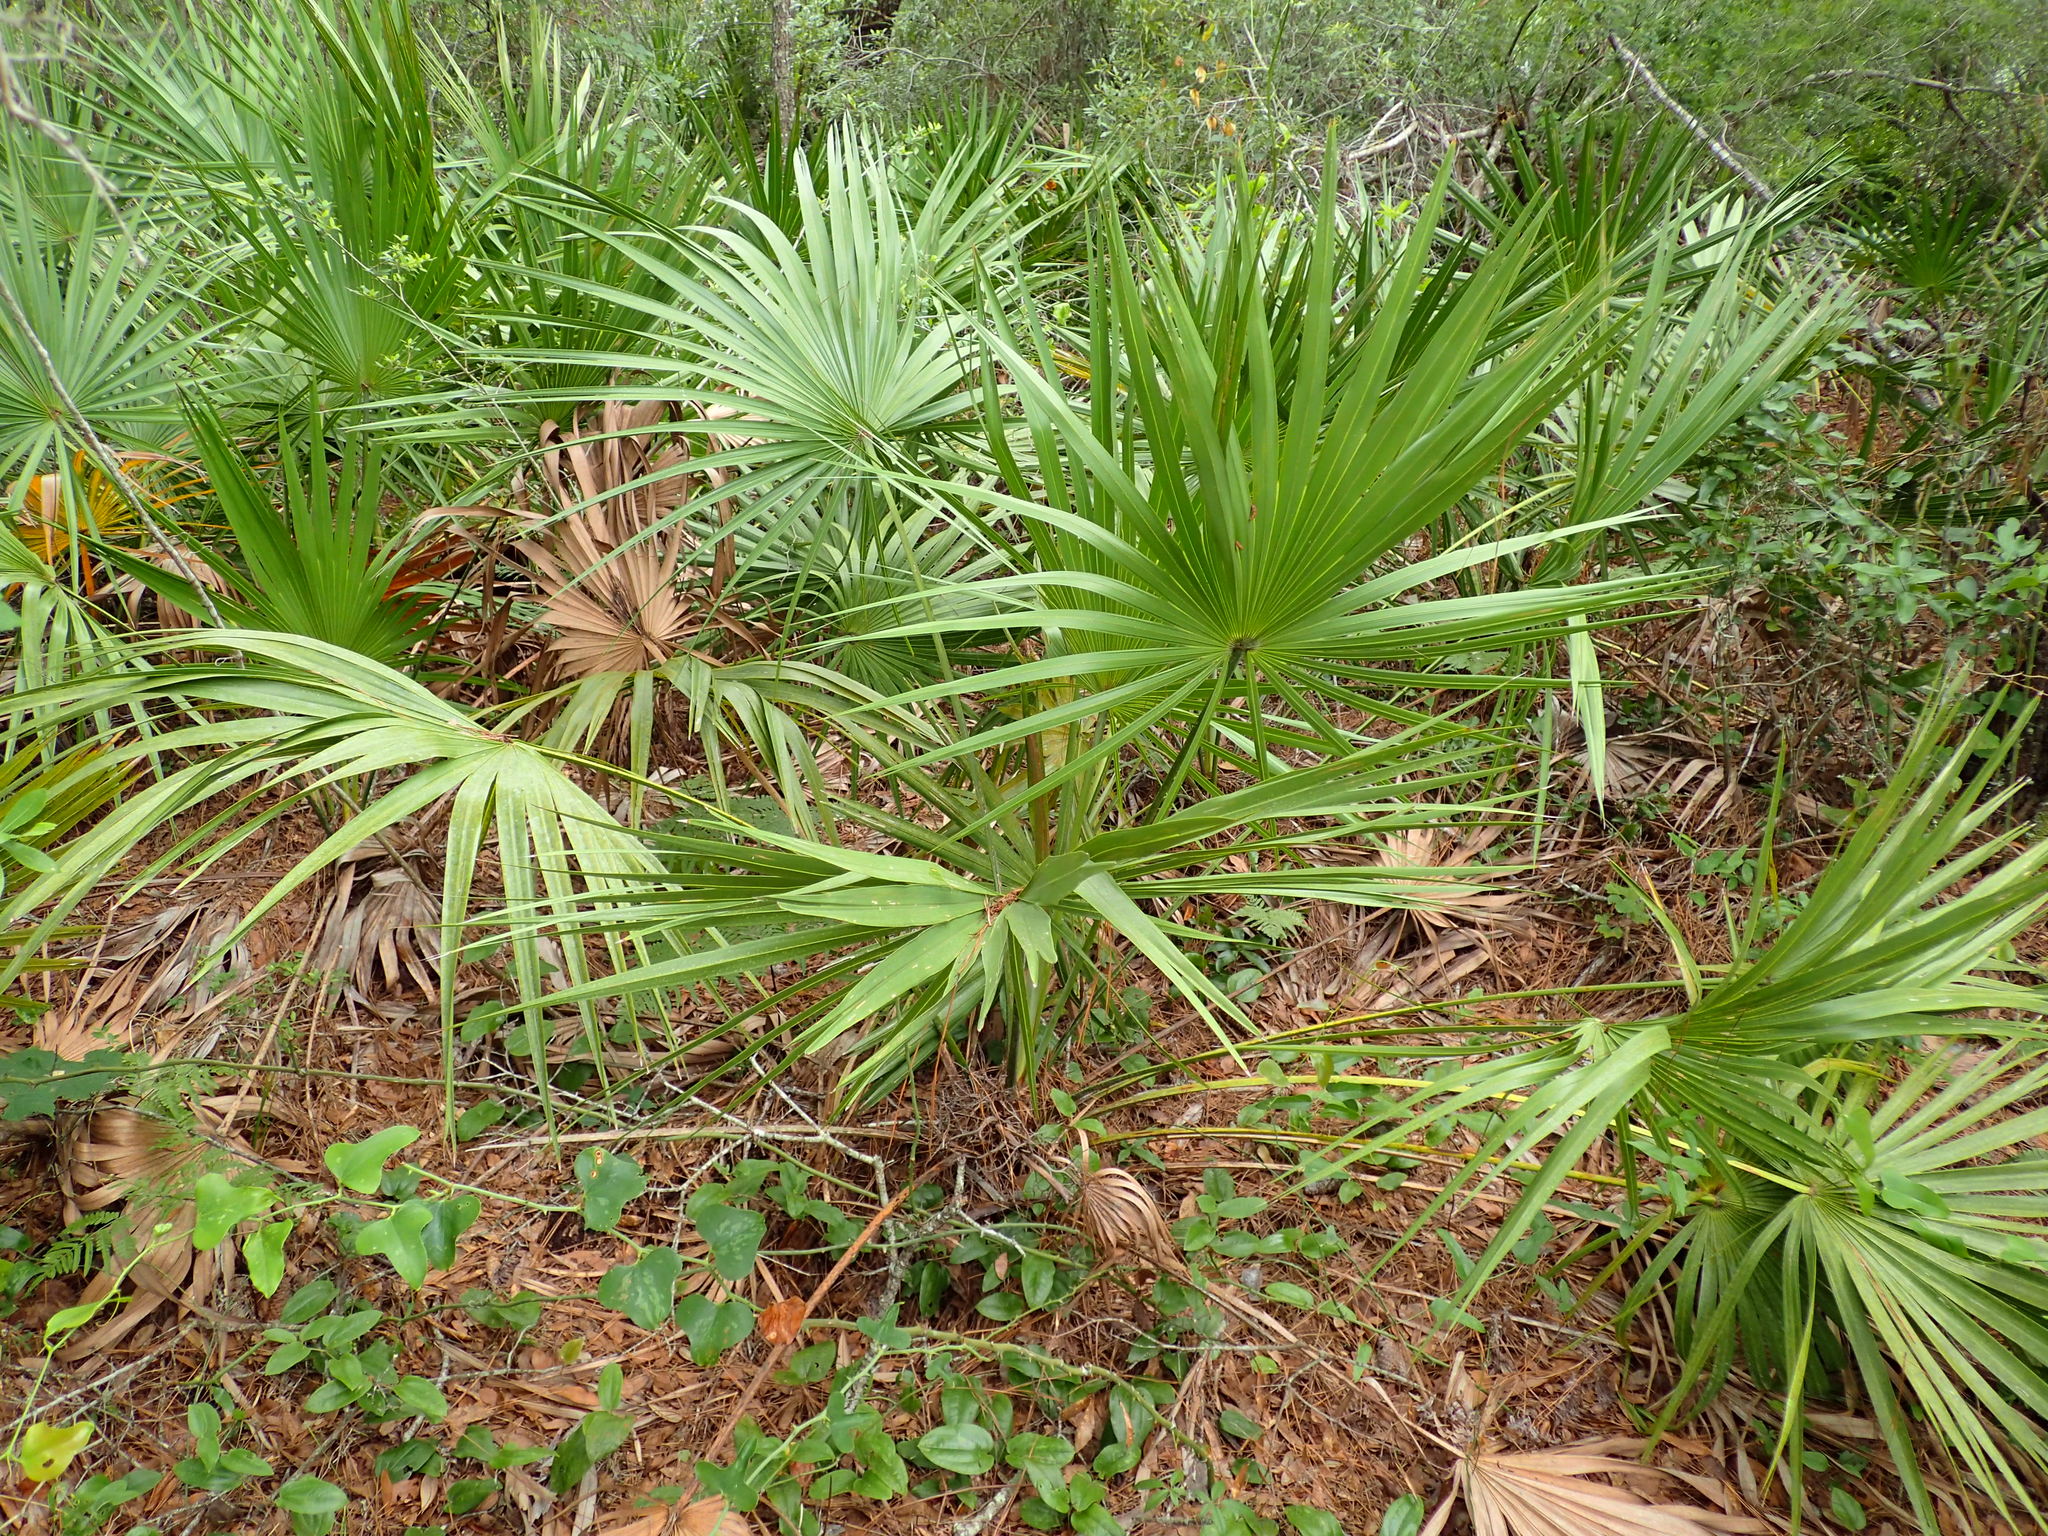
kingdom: Plantae
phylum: Tracheophyta
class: Liliopsida
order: Arecales
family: Arecaceae
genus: Serenoa
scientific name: Serenoa repens
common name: Saw-palmetto
